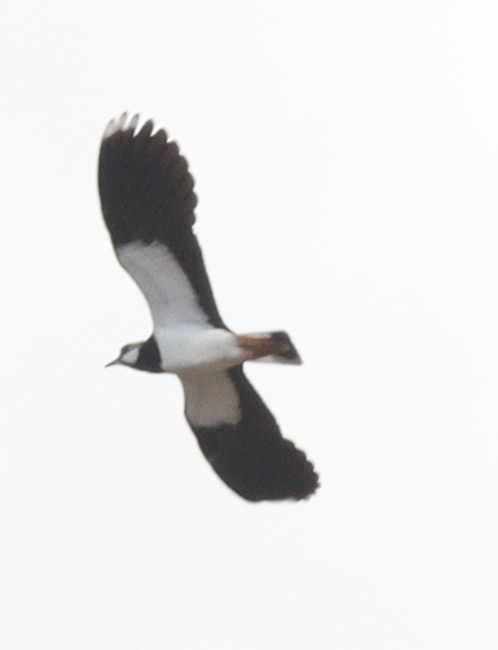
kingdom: Animalia
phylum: Chordata
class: Aves
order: Charadriiformes
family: Charadriidae
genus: Vanellus
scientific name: Vanellus vanellus
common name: Northern lapwing
